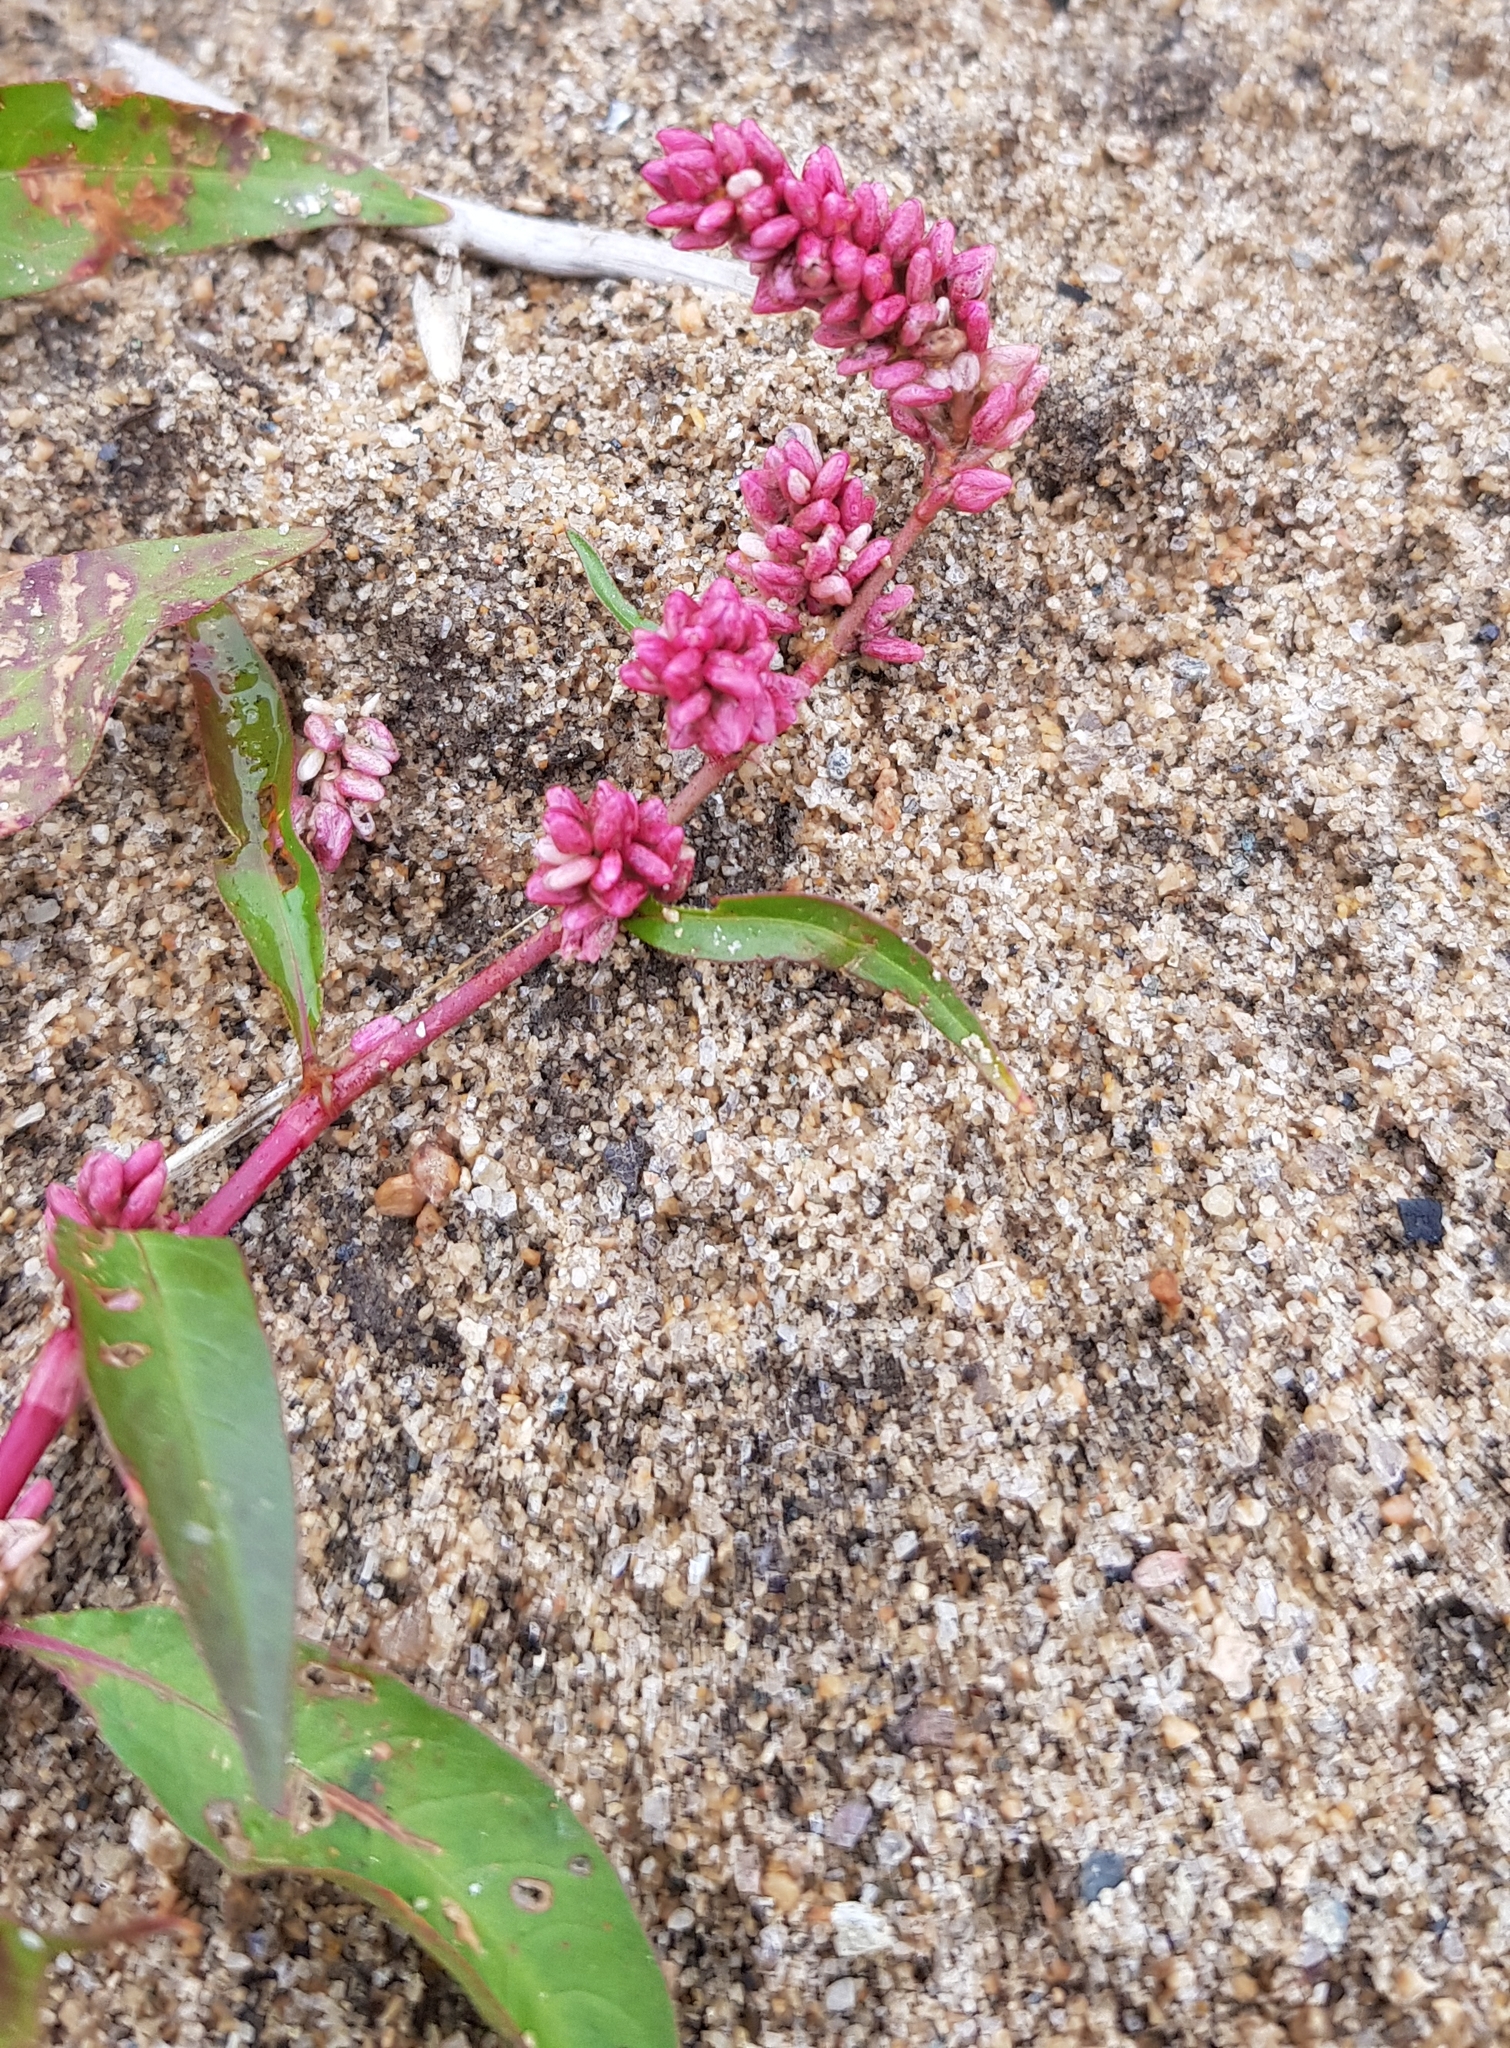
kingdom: Plantae
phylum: Tracheophyta
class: Magnoliopsida
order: Caryophyllales
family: Polygonaceae
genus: Persicaria
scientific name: Persicaria lapathifolia
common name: Curlytop knotweed
